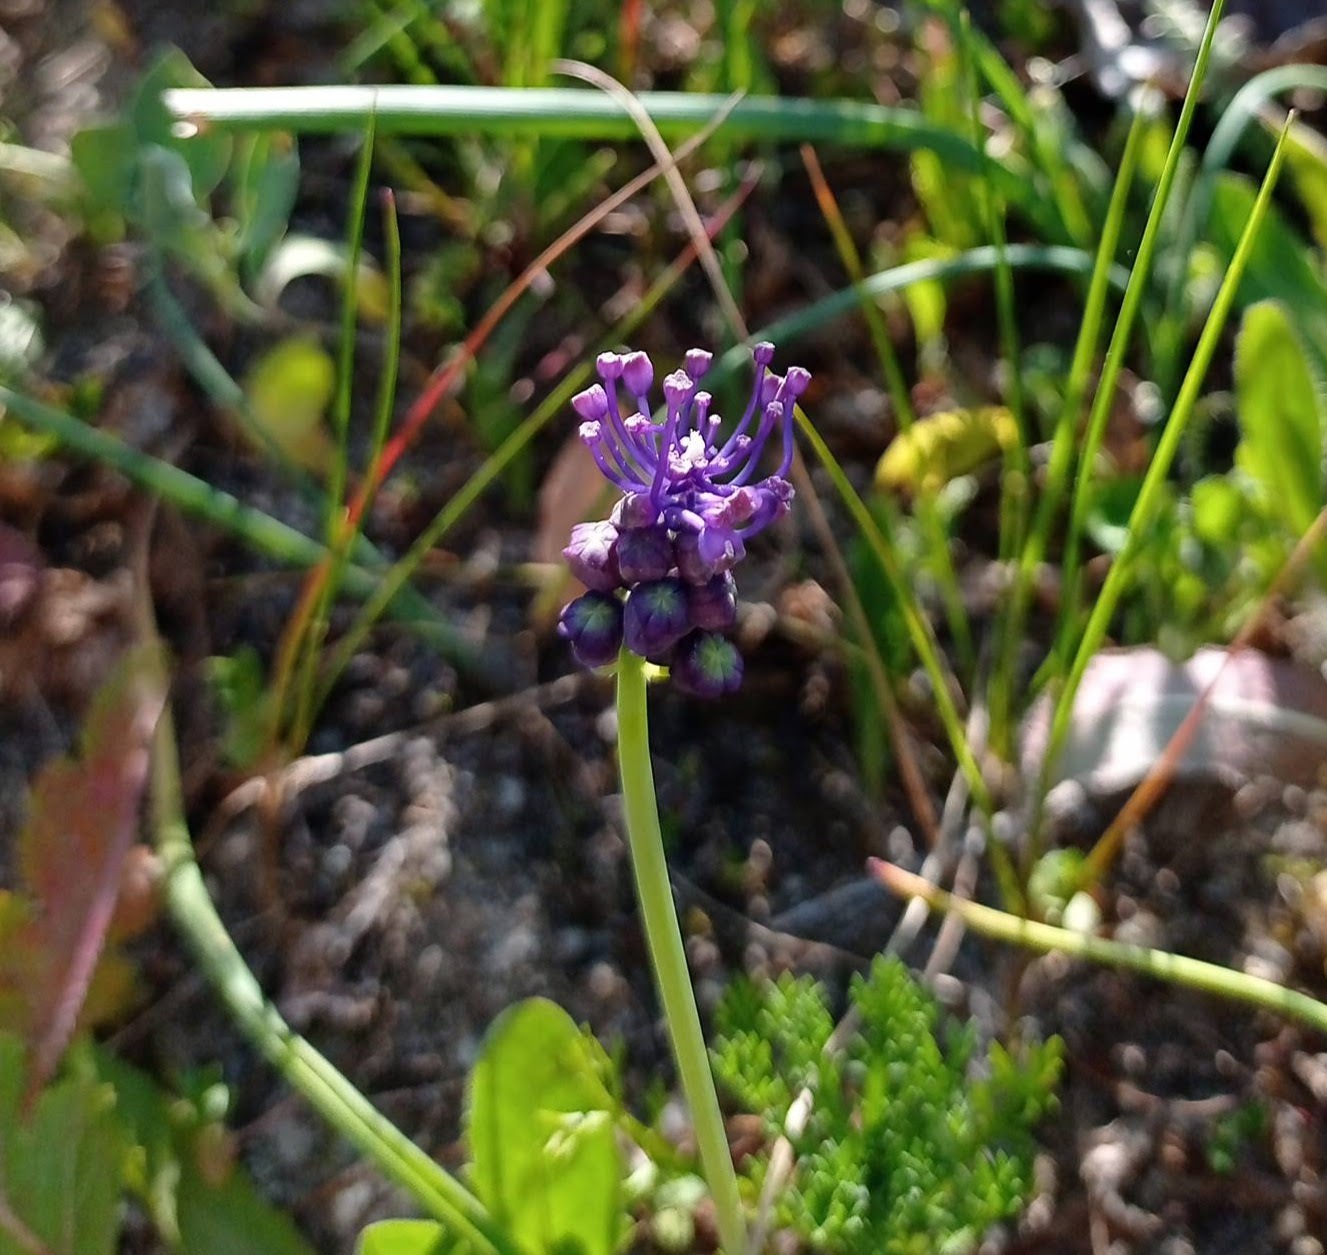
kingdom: Plantae
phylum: Tracheophyta
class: Liliopsida
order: Asparagales
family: Asparagaceae
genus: Muscari
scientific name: Muscari comosum
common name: Tassel hyacinth
